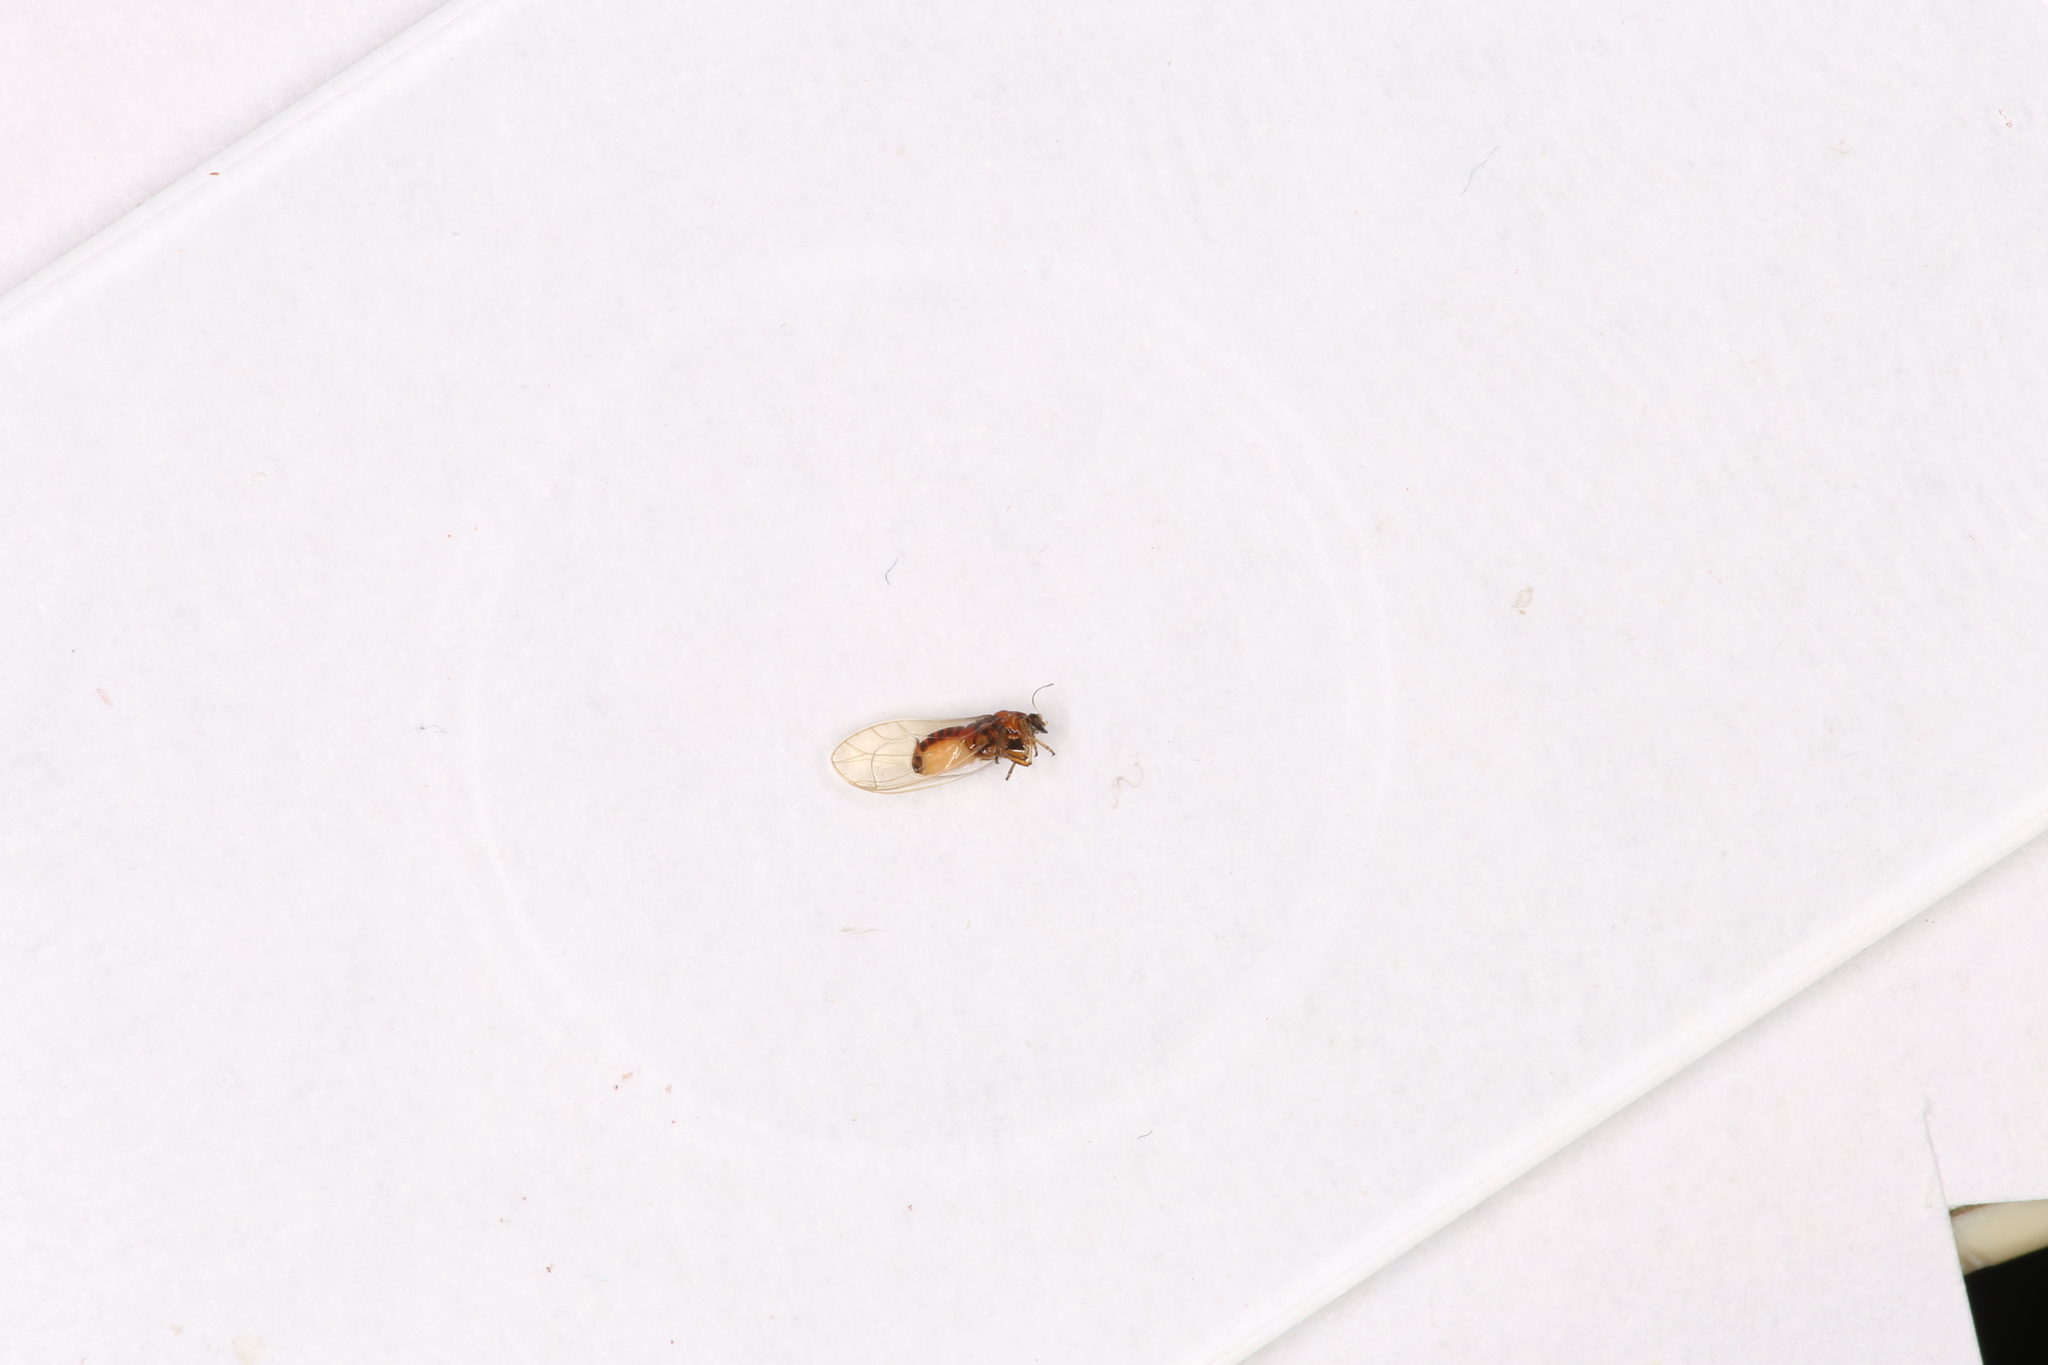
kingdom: Animalia
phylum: Arthropoda
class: Insecta
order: Hemiptera
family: Triozidae
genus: Bactericera
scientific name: Bactericera albiventris
